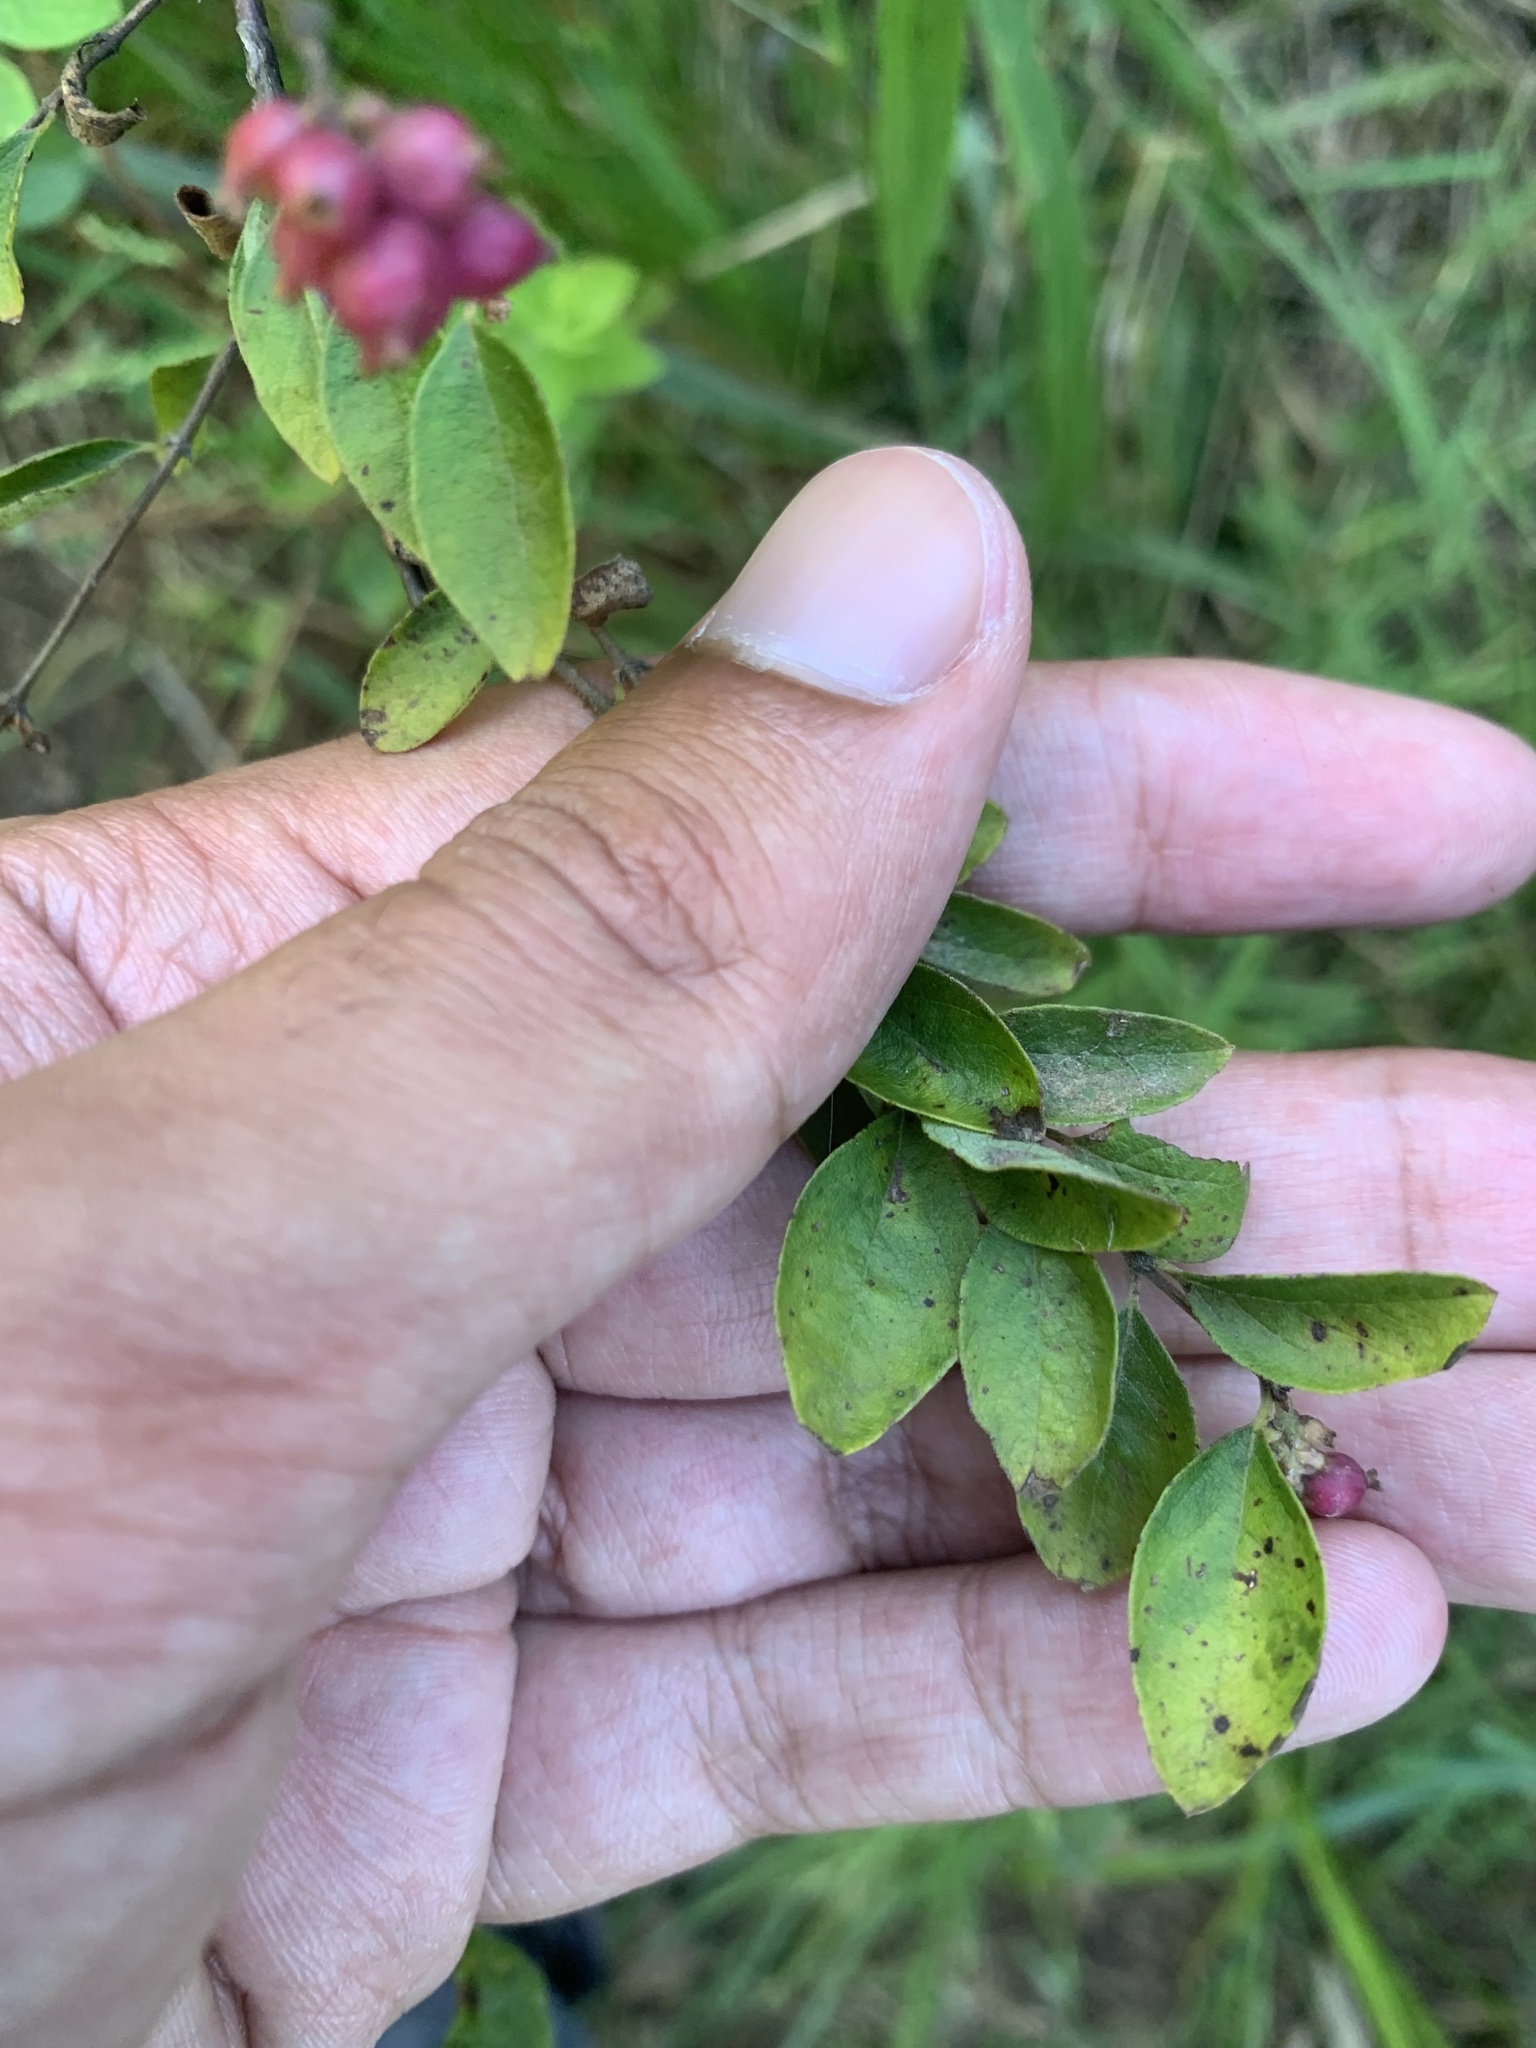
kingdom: Plantae
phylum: Tracheophyta
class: Magnoliopsida
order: Dipsacales
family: Caprifoliaceae
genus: Symphoricarpos
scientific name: Symphoricarpos orbiculatus
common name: Coralberry
